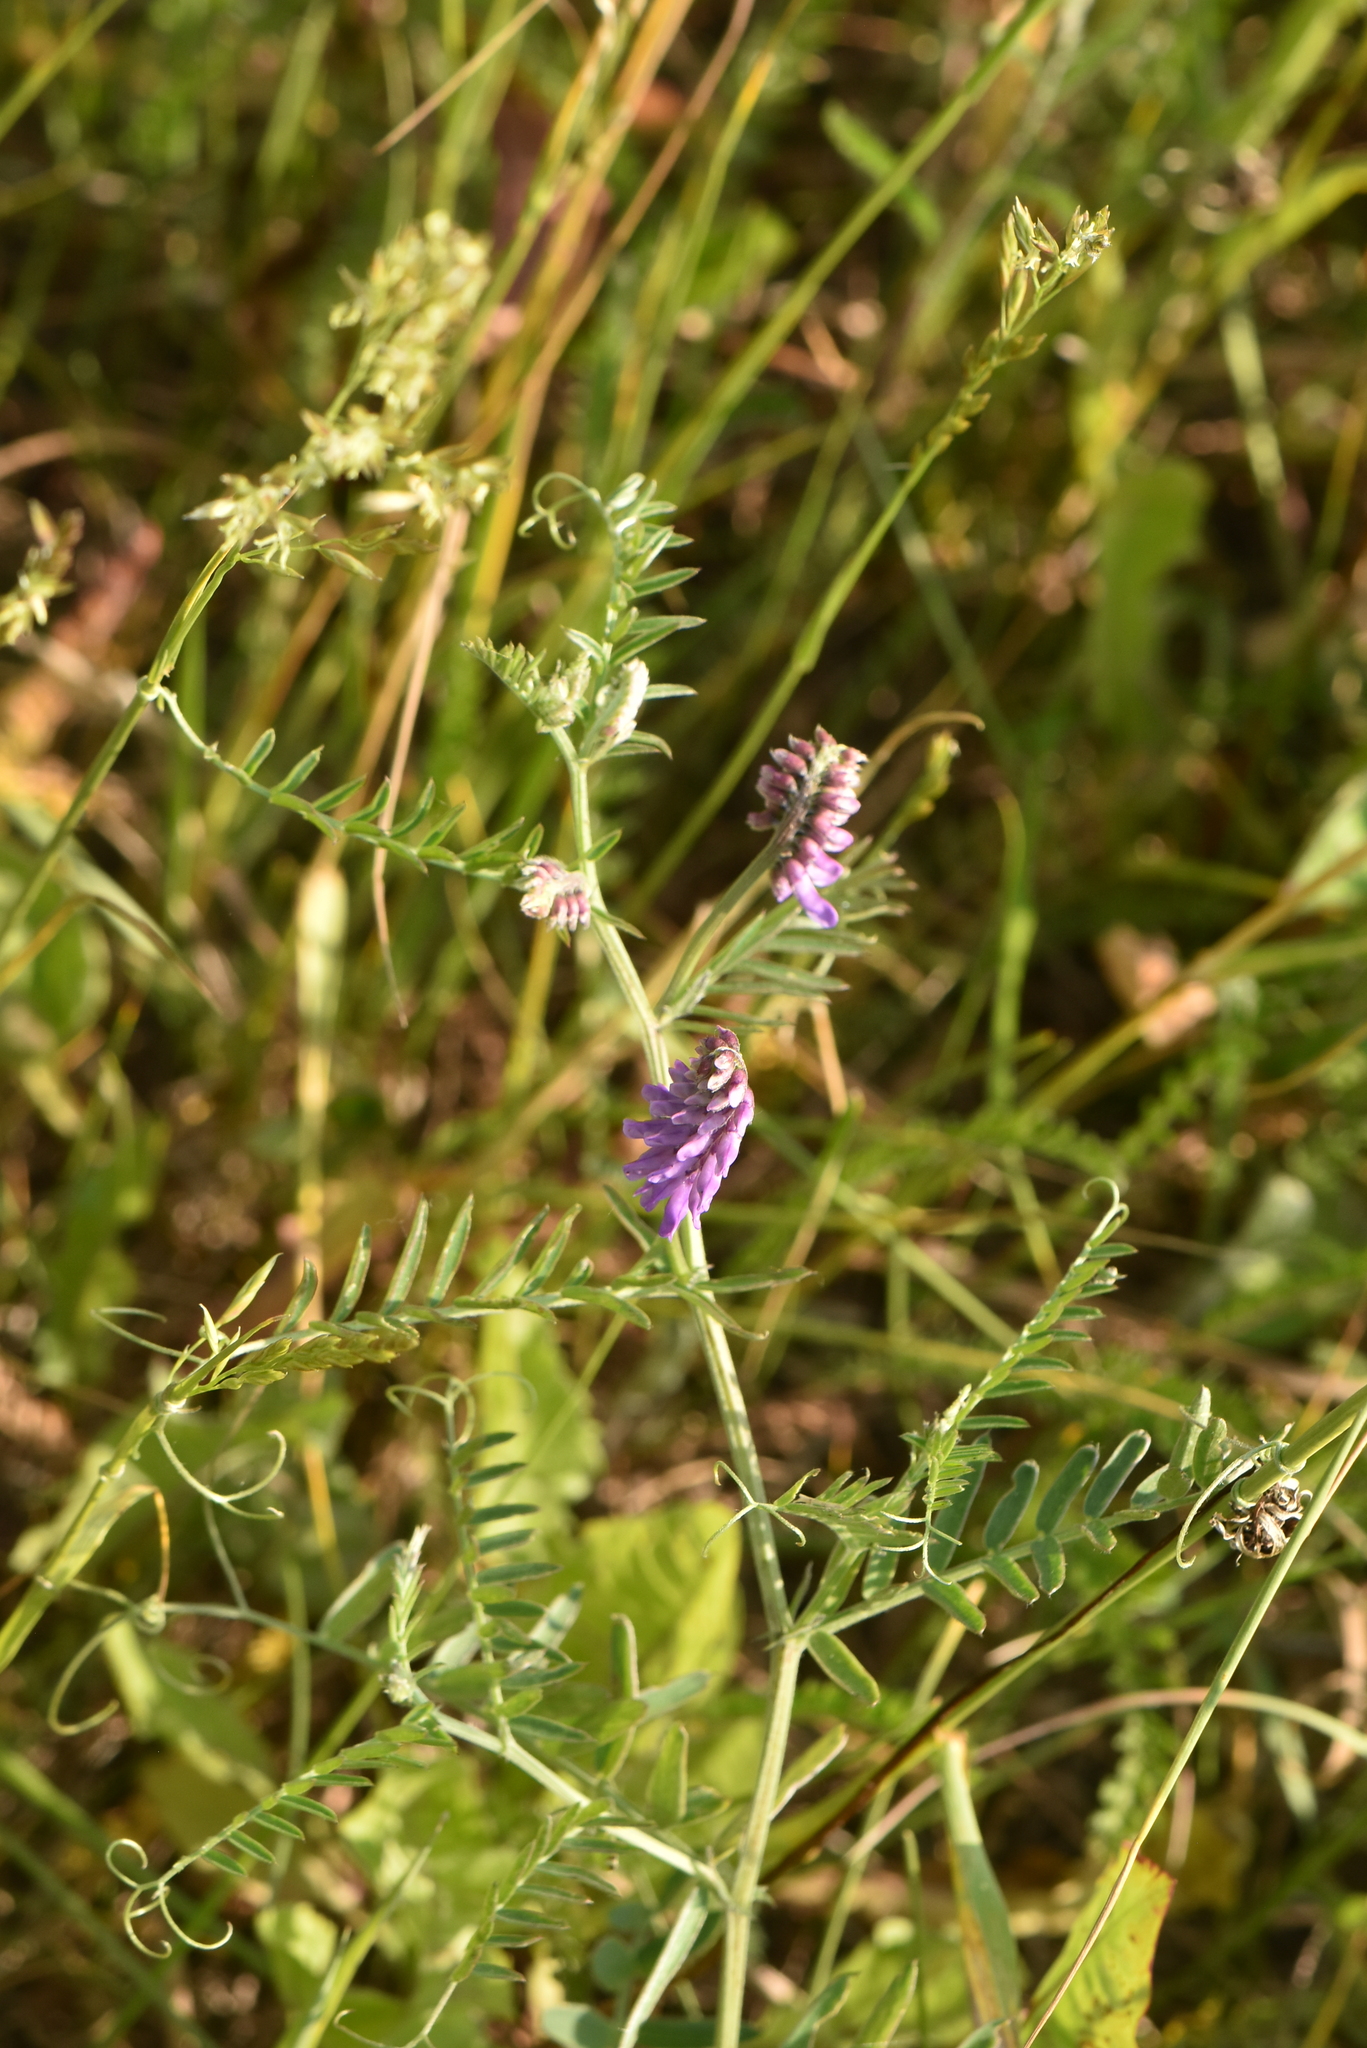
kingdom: Plantae
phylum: Tracheophyta
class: Magnoliopsida
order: Fabales
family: Fabaceae
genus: Vicia
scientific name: Vicia cracca
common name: Bird vetch
